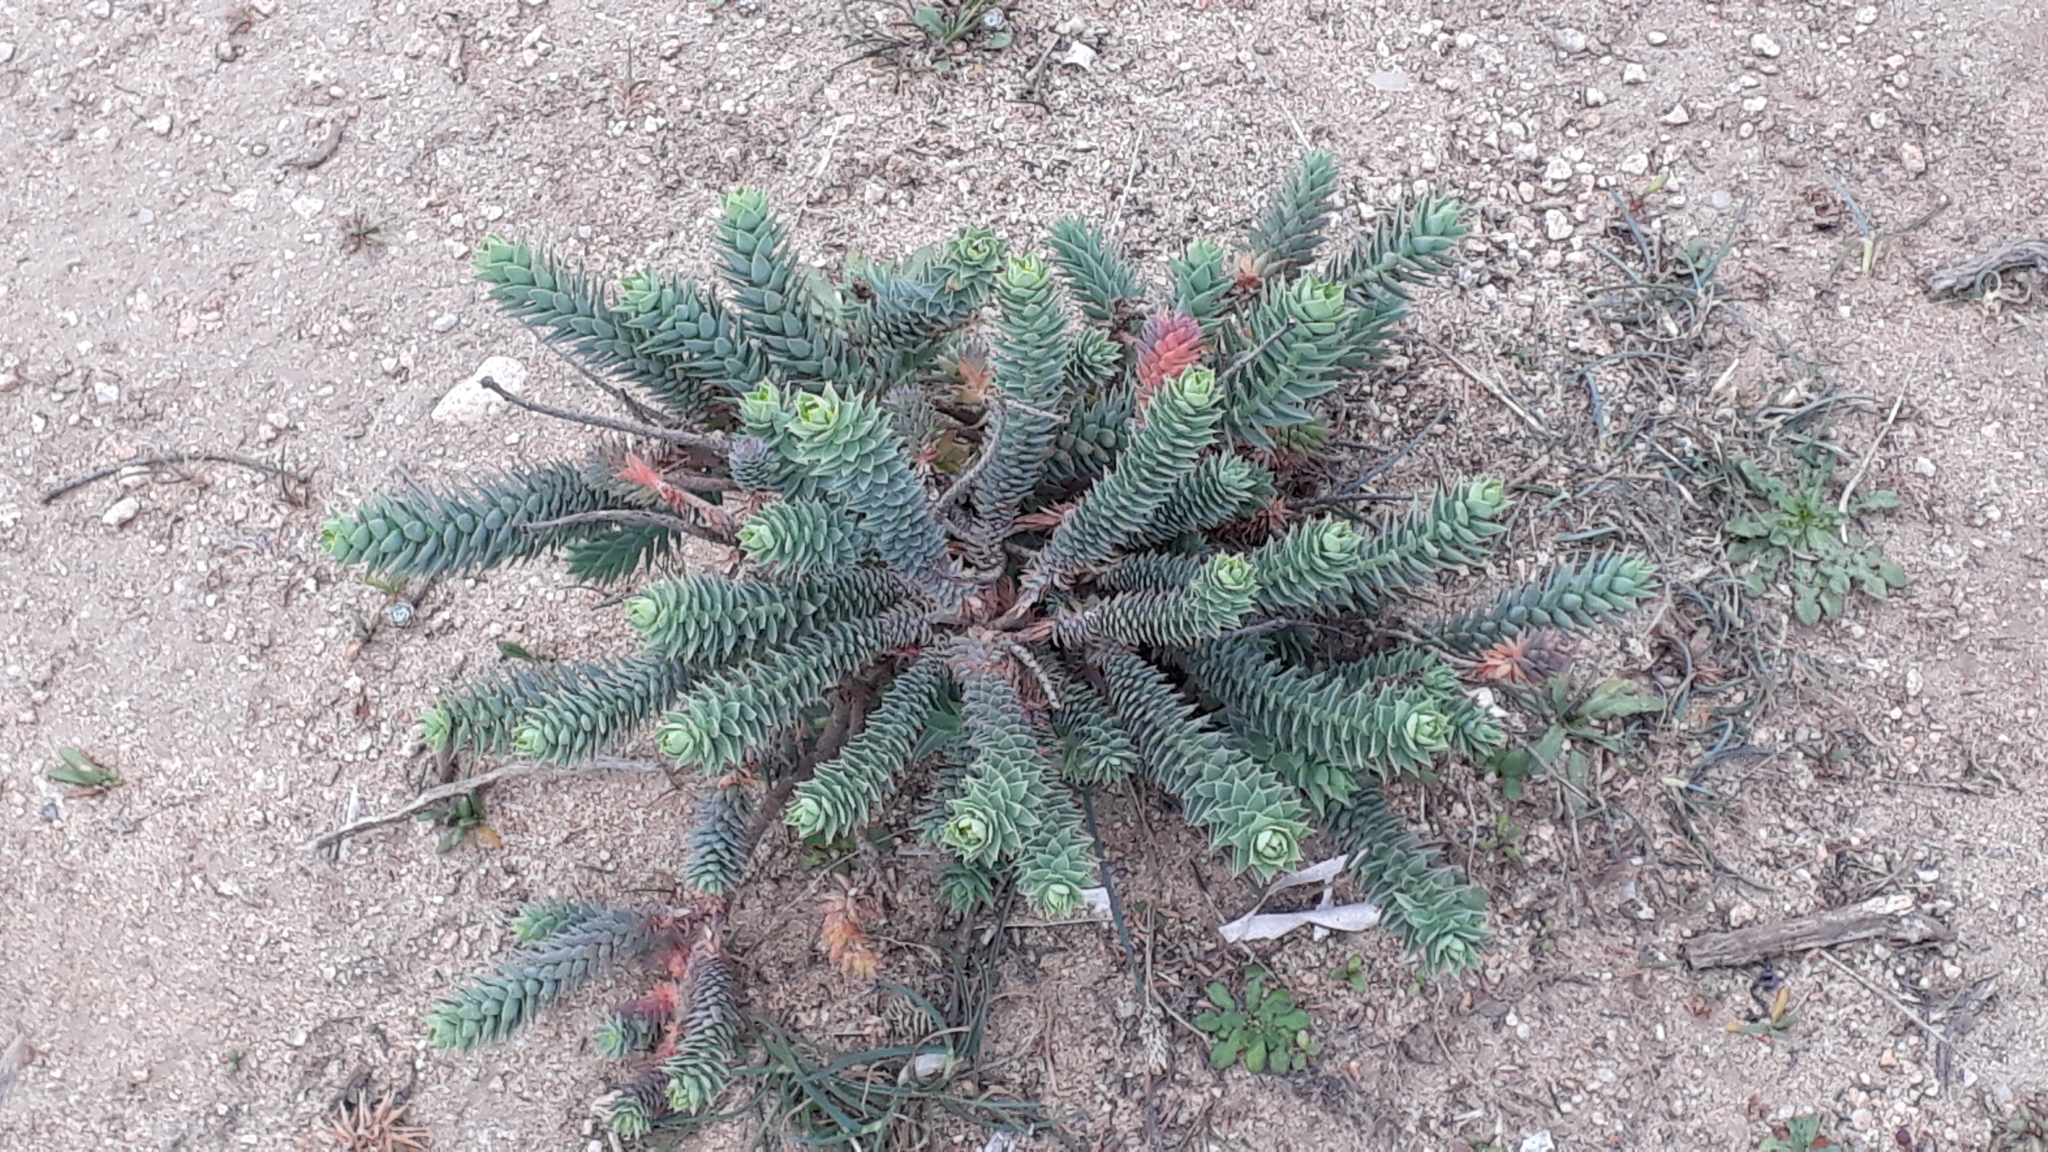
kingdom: Plantae
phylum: Tracheophyta
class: Magnoliopsida
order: Malpighiales
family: Euphorbiaceae
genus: Euphorbia
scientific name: Euphorbia pithyusa
